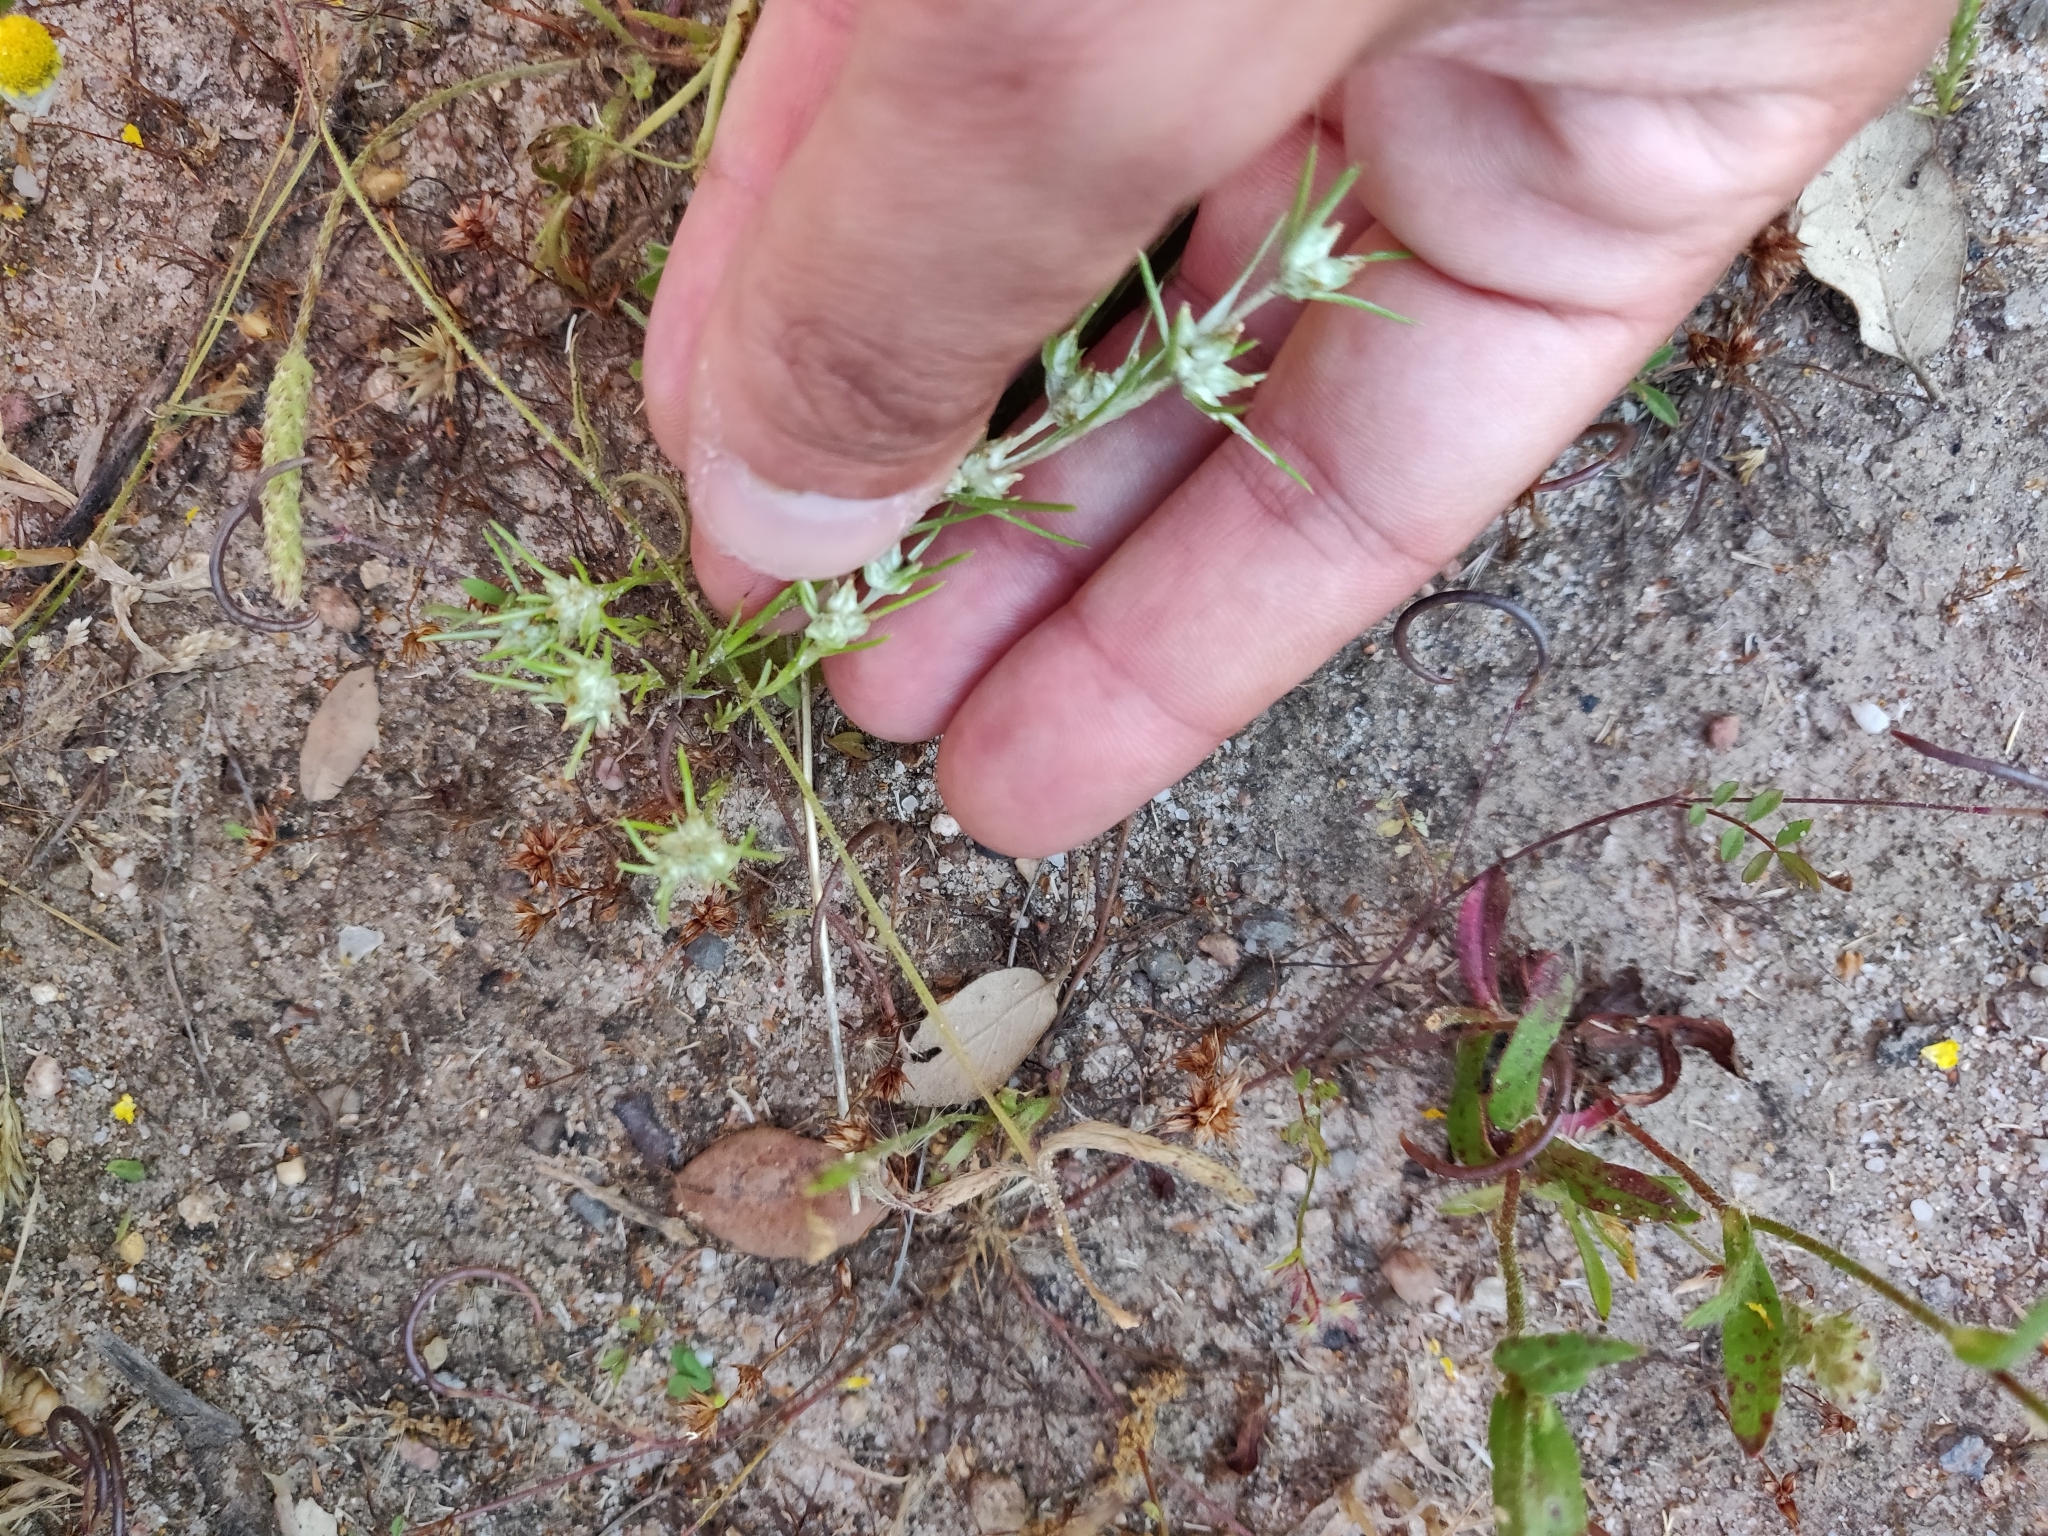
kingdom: Plantae
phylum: Tracheophyta
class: Magnoliopsida
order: Asterales
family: Asteraceae
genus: Logfia
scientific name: Logfia gallica
